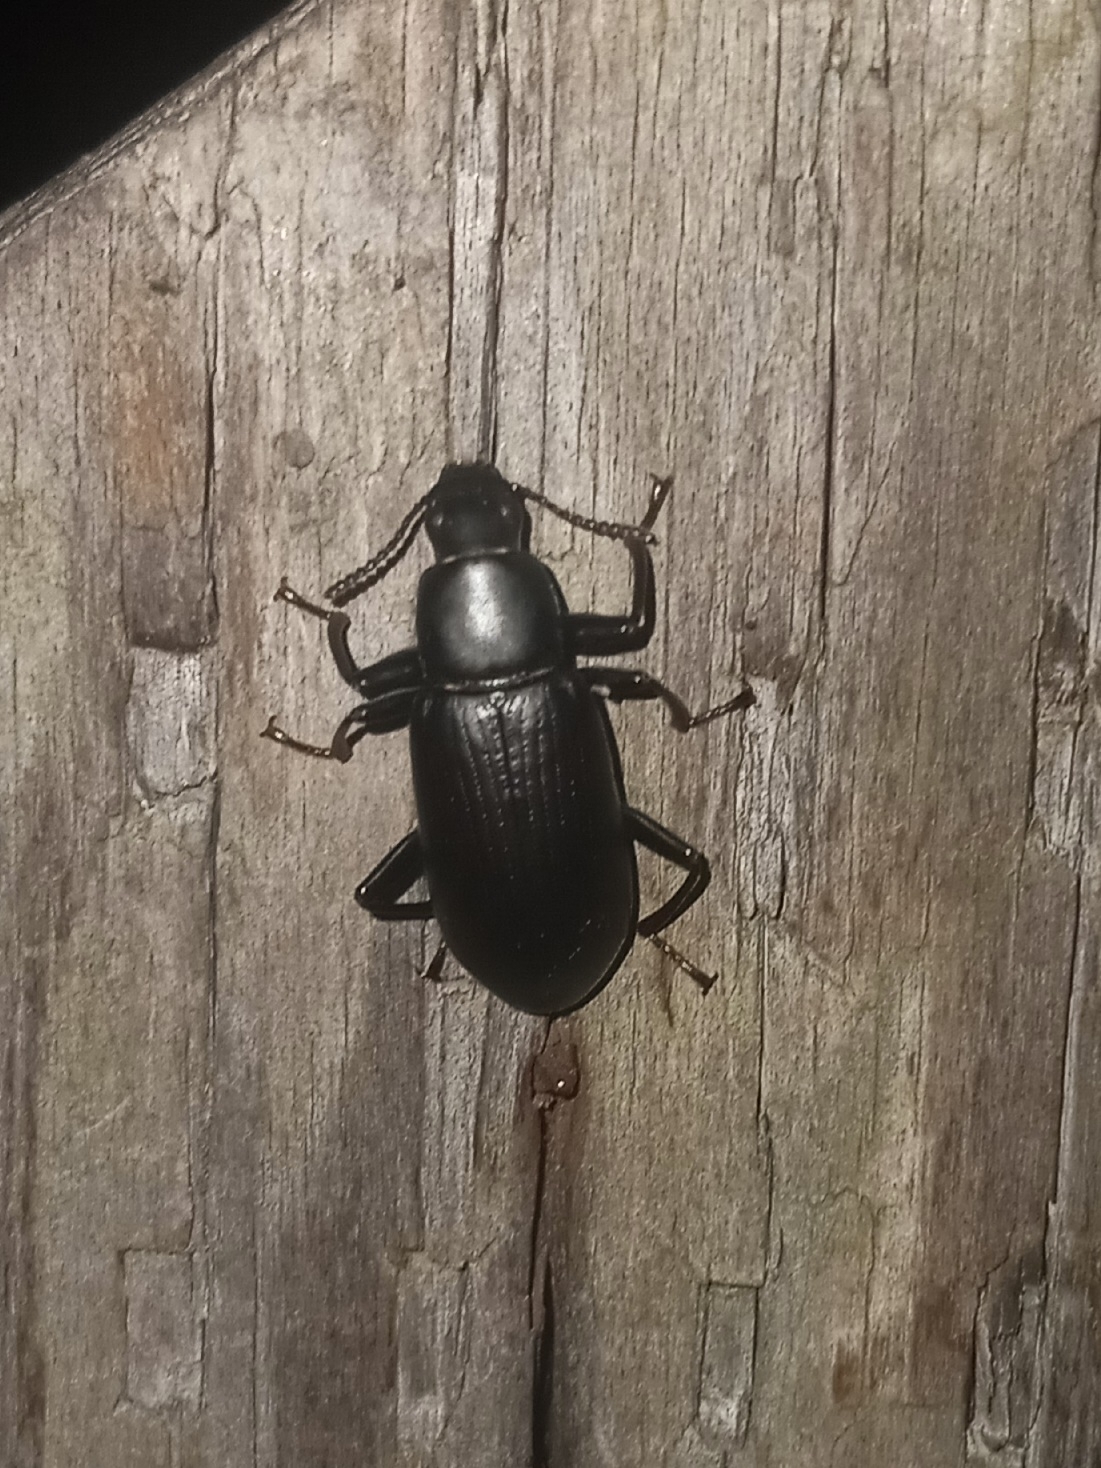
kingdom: Animalia
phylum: Arthropoda
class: Insecta
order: Coleoptera
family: Tenebrionidae
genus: Alobates
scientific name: Alobates
